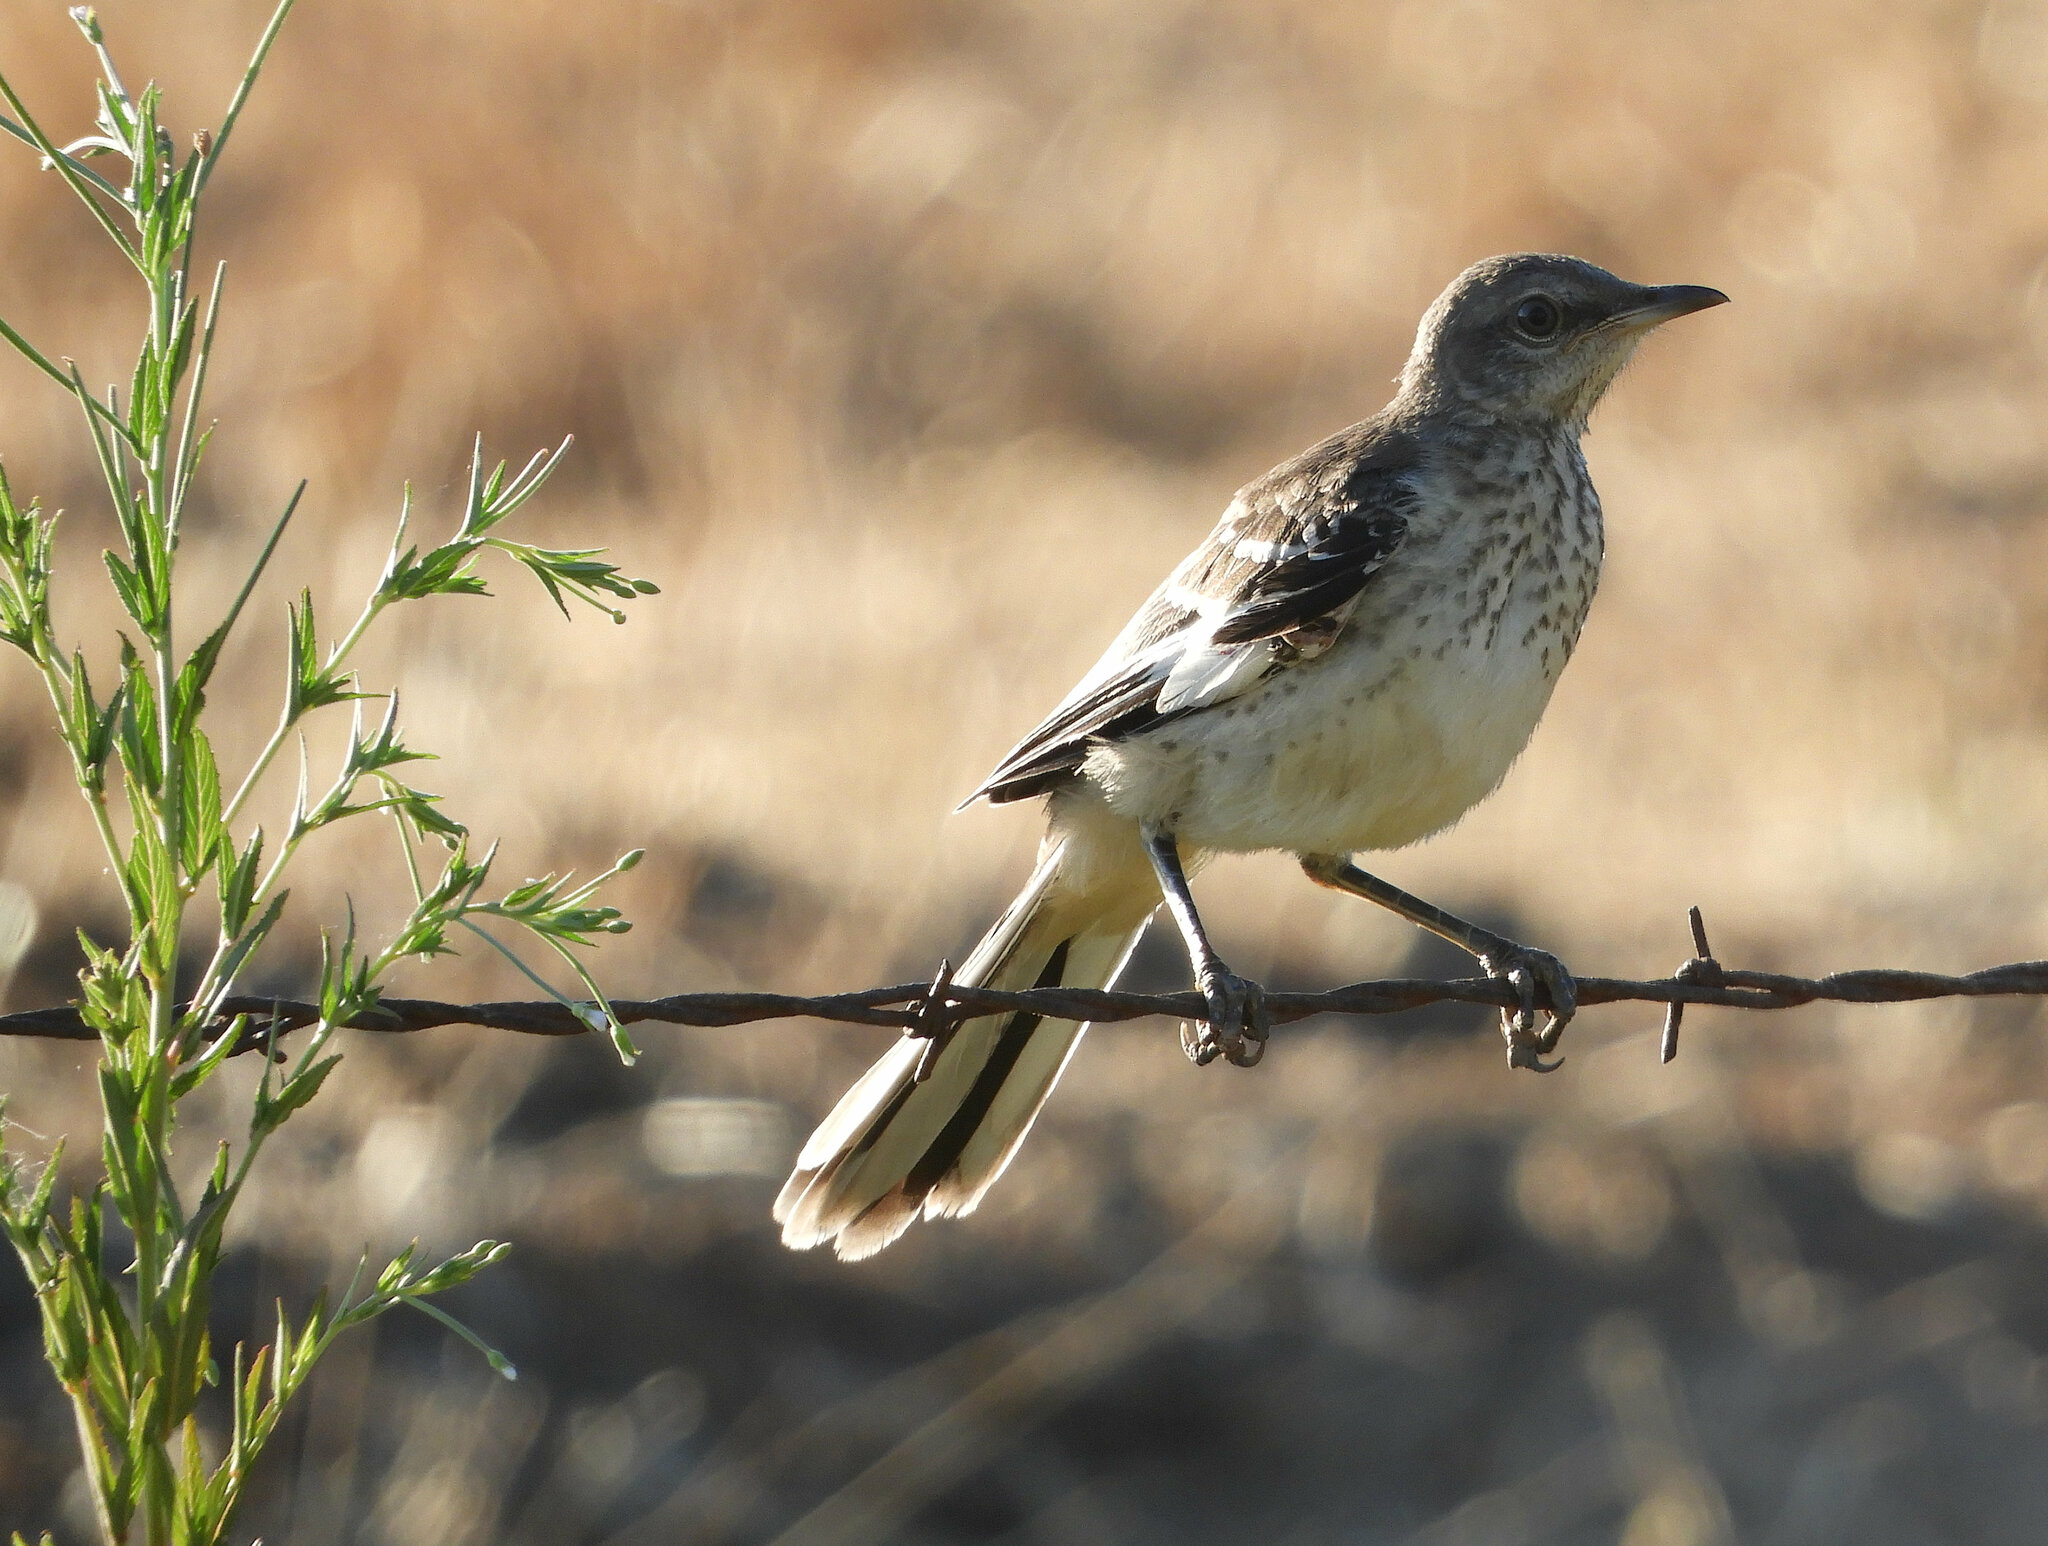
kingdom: Animalia
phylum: Chordata
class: Aves
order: Passeriformes
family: Mimidae
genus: Mimus
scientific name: Mimus polyglottos
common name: Northern mockingbird
